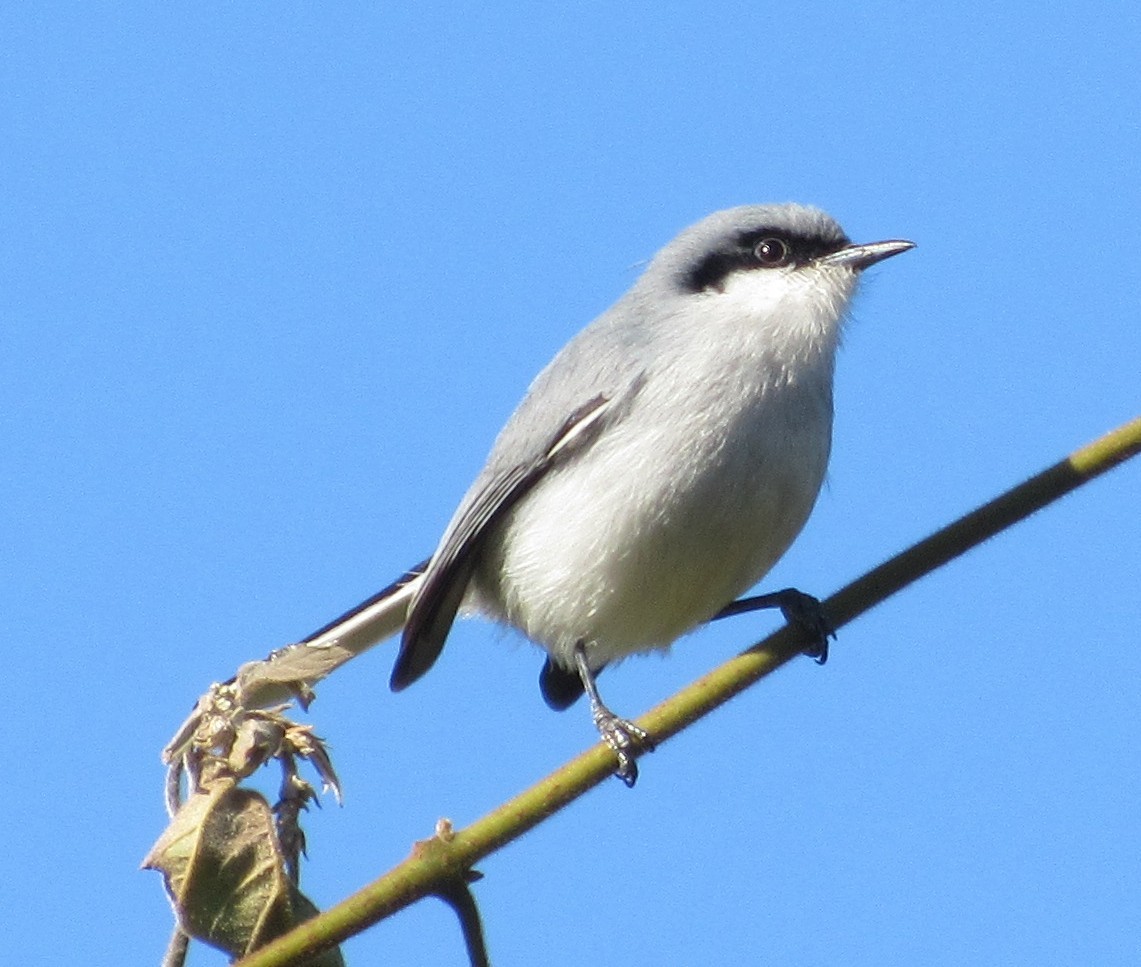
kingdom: Animalia
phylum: Chordata
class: Aves
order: Passeriformes
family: Polioptilidae
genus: Polioptila
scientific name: Polioptila dumicola
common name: Masked gnatcatcher
